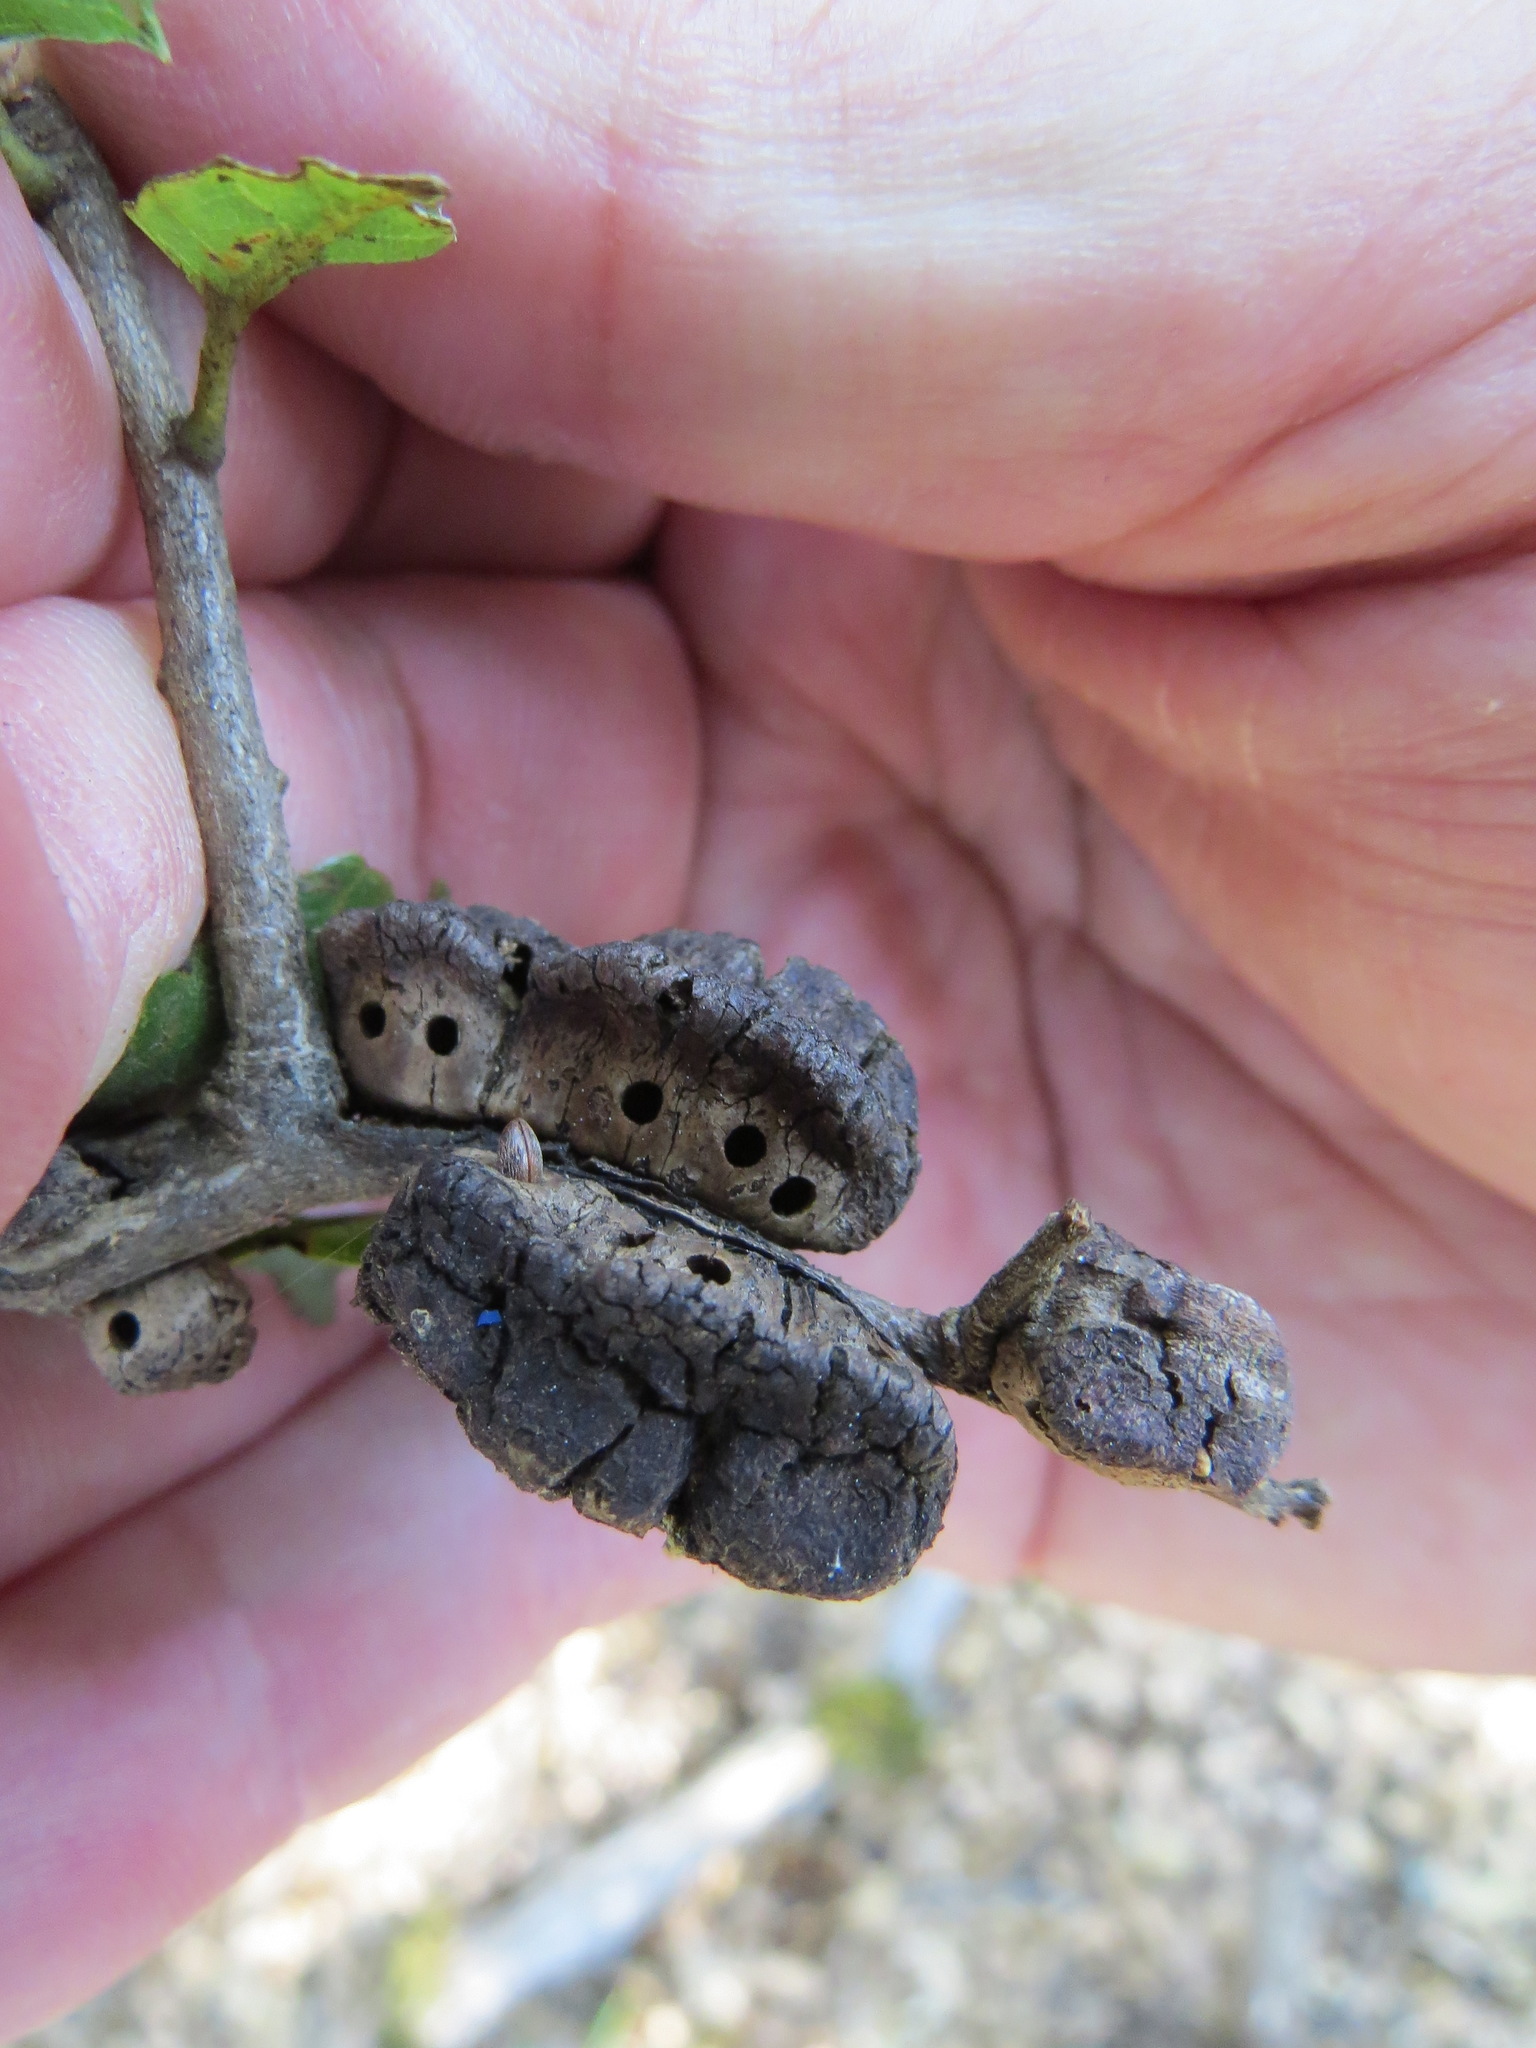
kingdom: Animalia
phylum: Arthropoda
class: Insecta
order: Hymenoptera
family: Cynipidae
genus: Disholandricus
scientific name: Disholandricus
